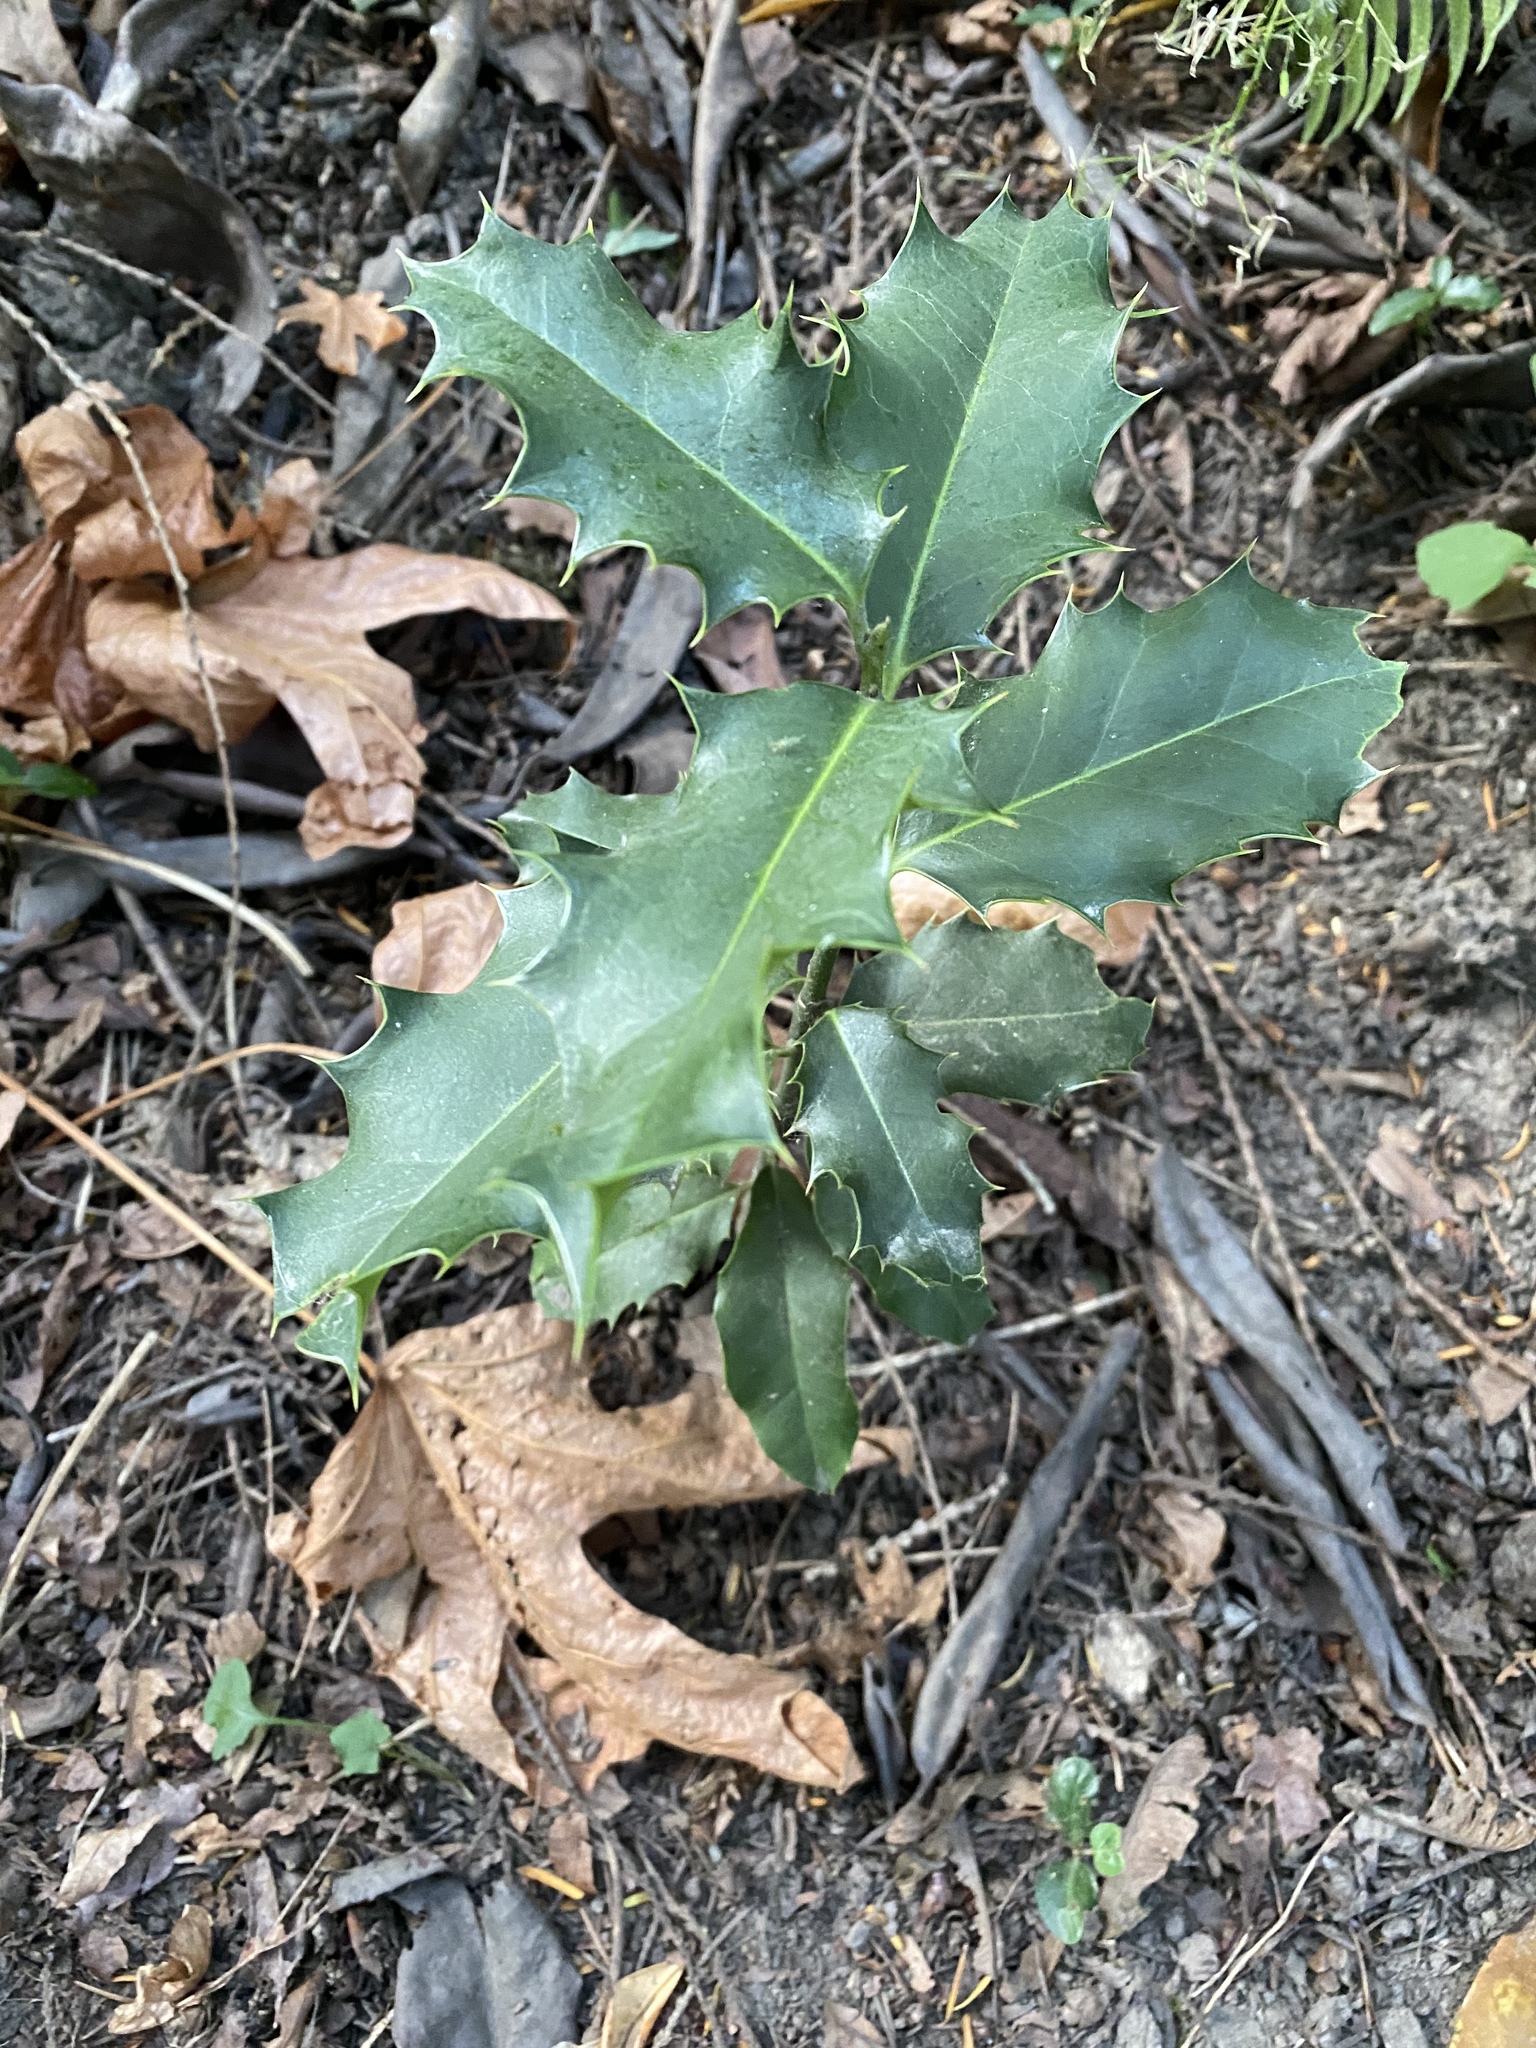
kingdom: Plantae
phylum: Tracheophyta
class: Magnoliopsida
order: Aquifoliales
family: Aquifoliaceae
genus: Ilex
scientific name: Ilex aquifolium
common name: English holly
